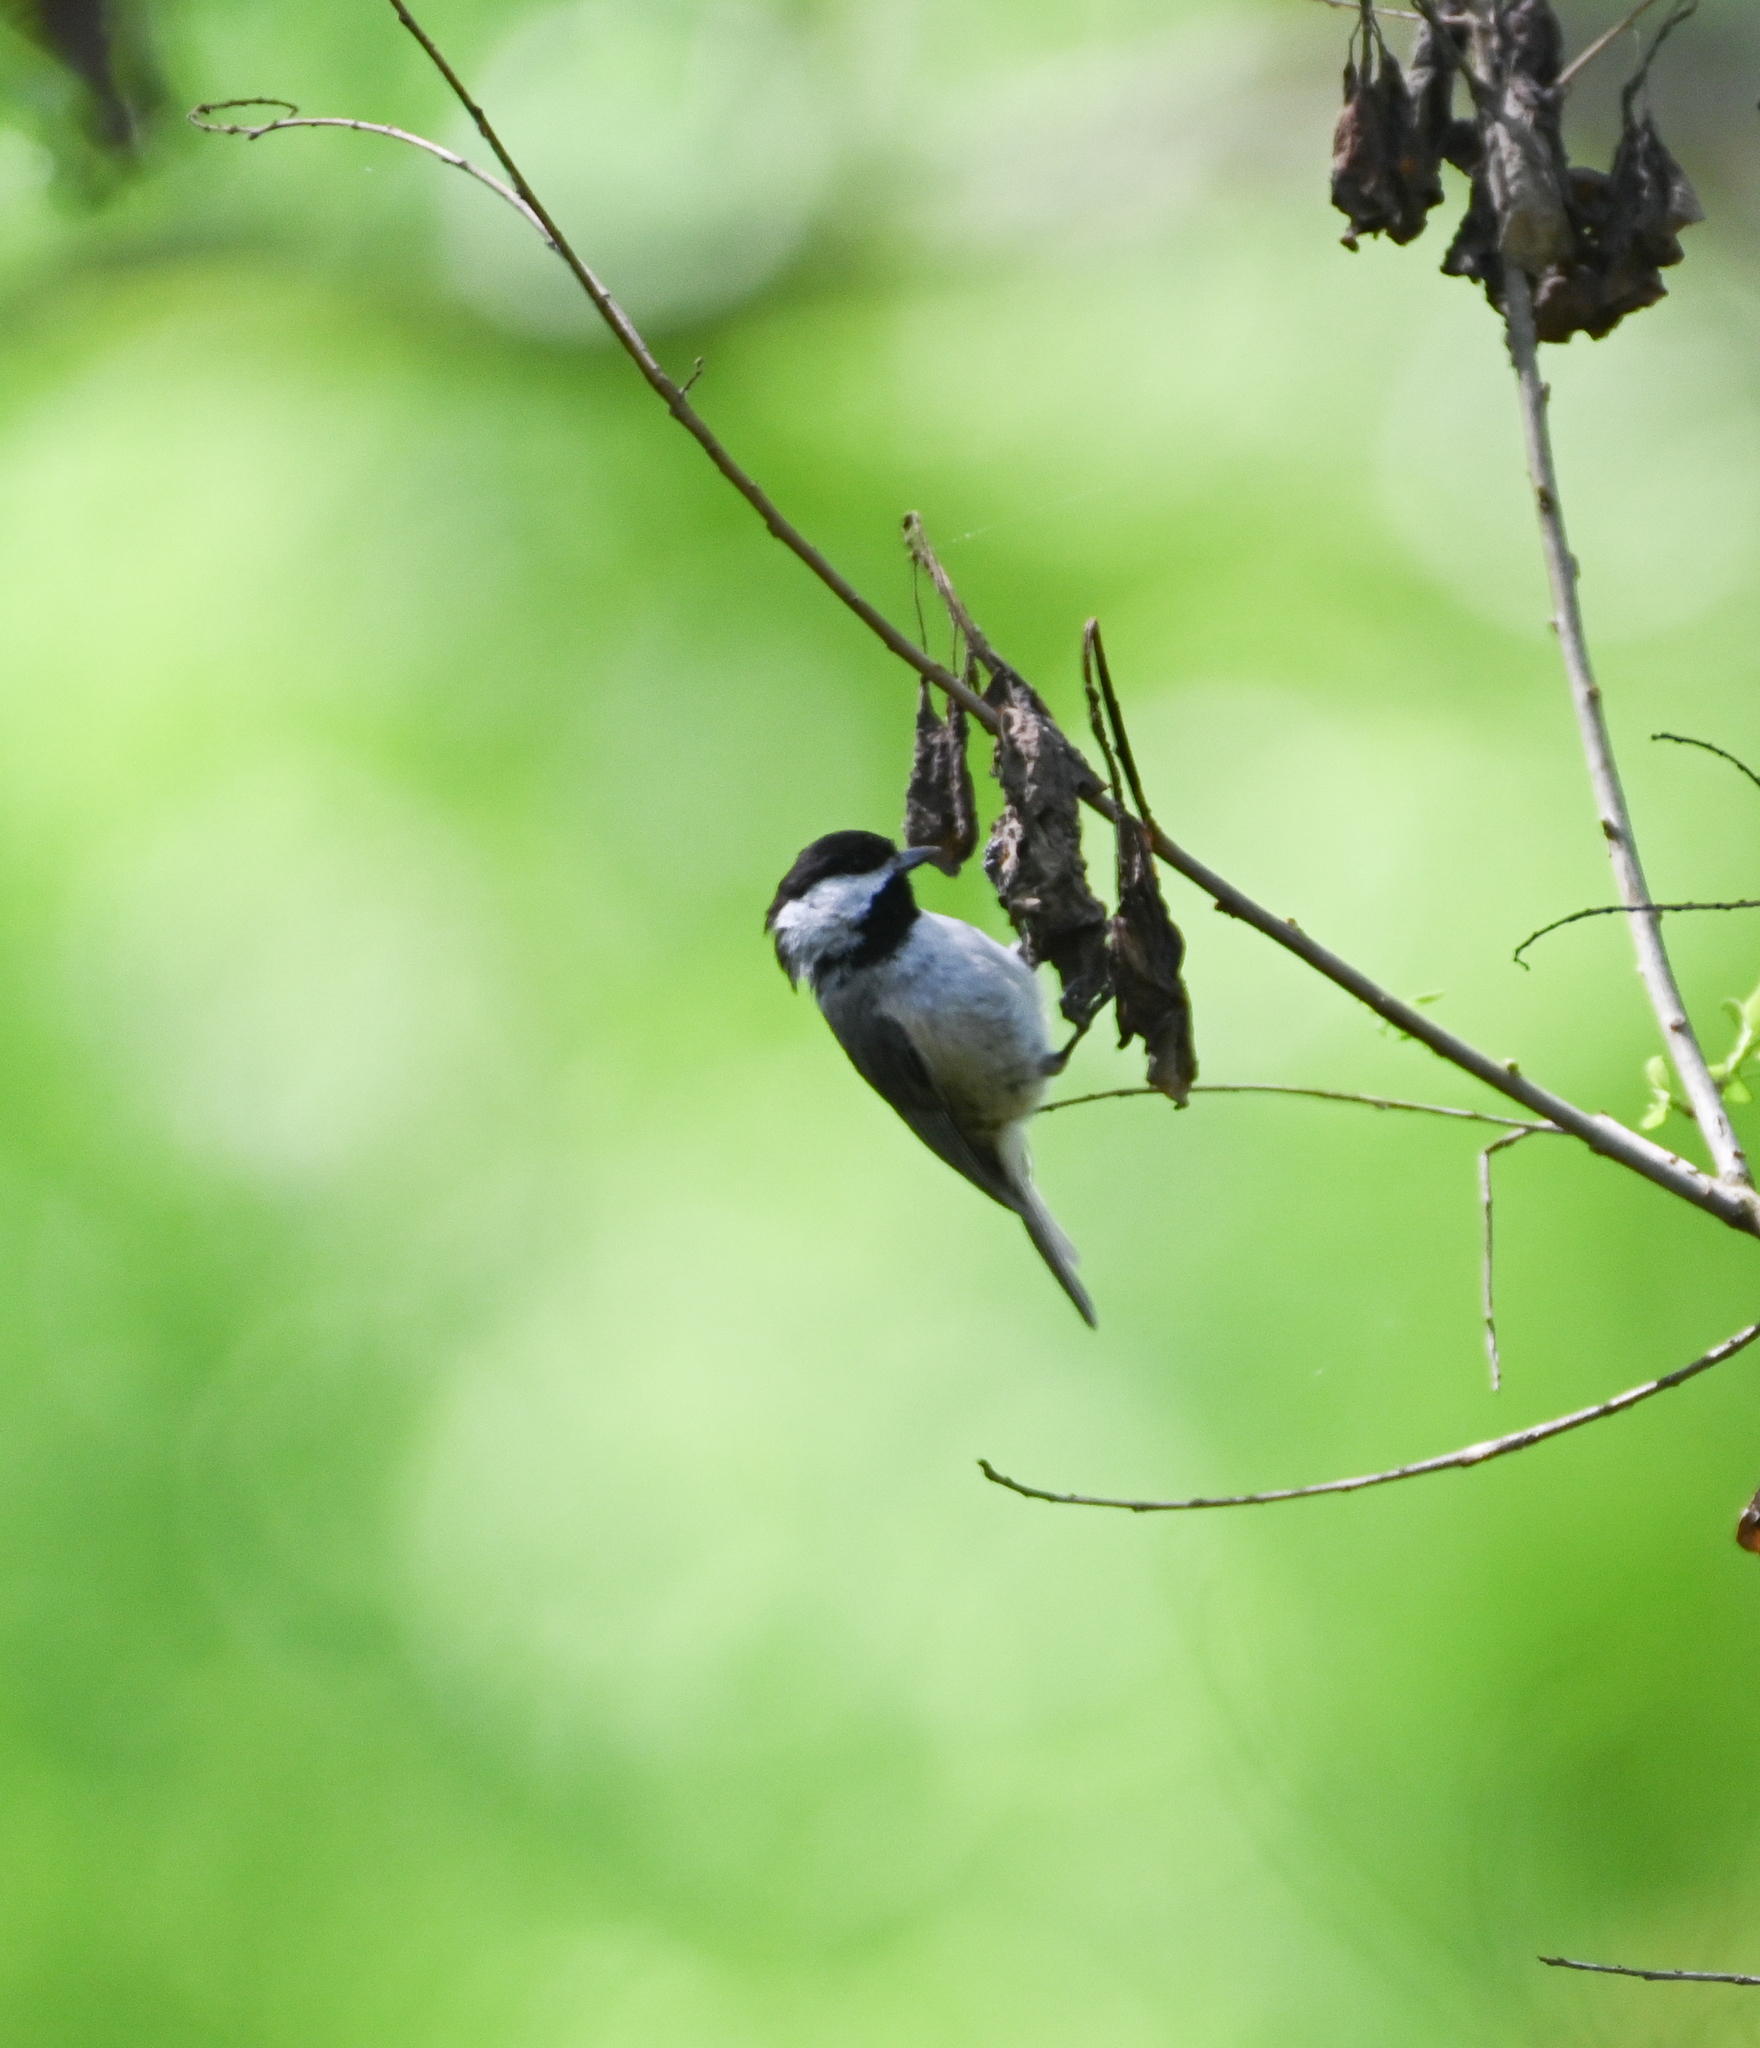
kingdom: Animalia
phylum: Chordata
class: Aves
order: Passeriformes
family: Paridae
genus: Poecile
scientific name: Poecile carolinensis
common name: Carolina chickadee
